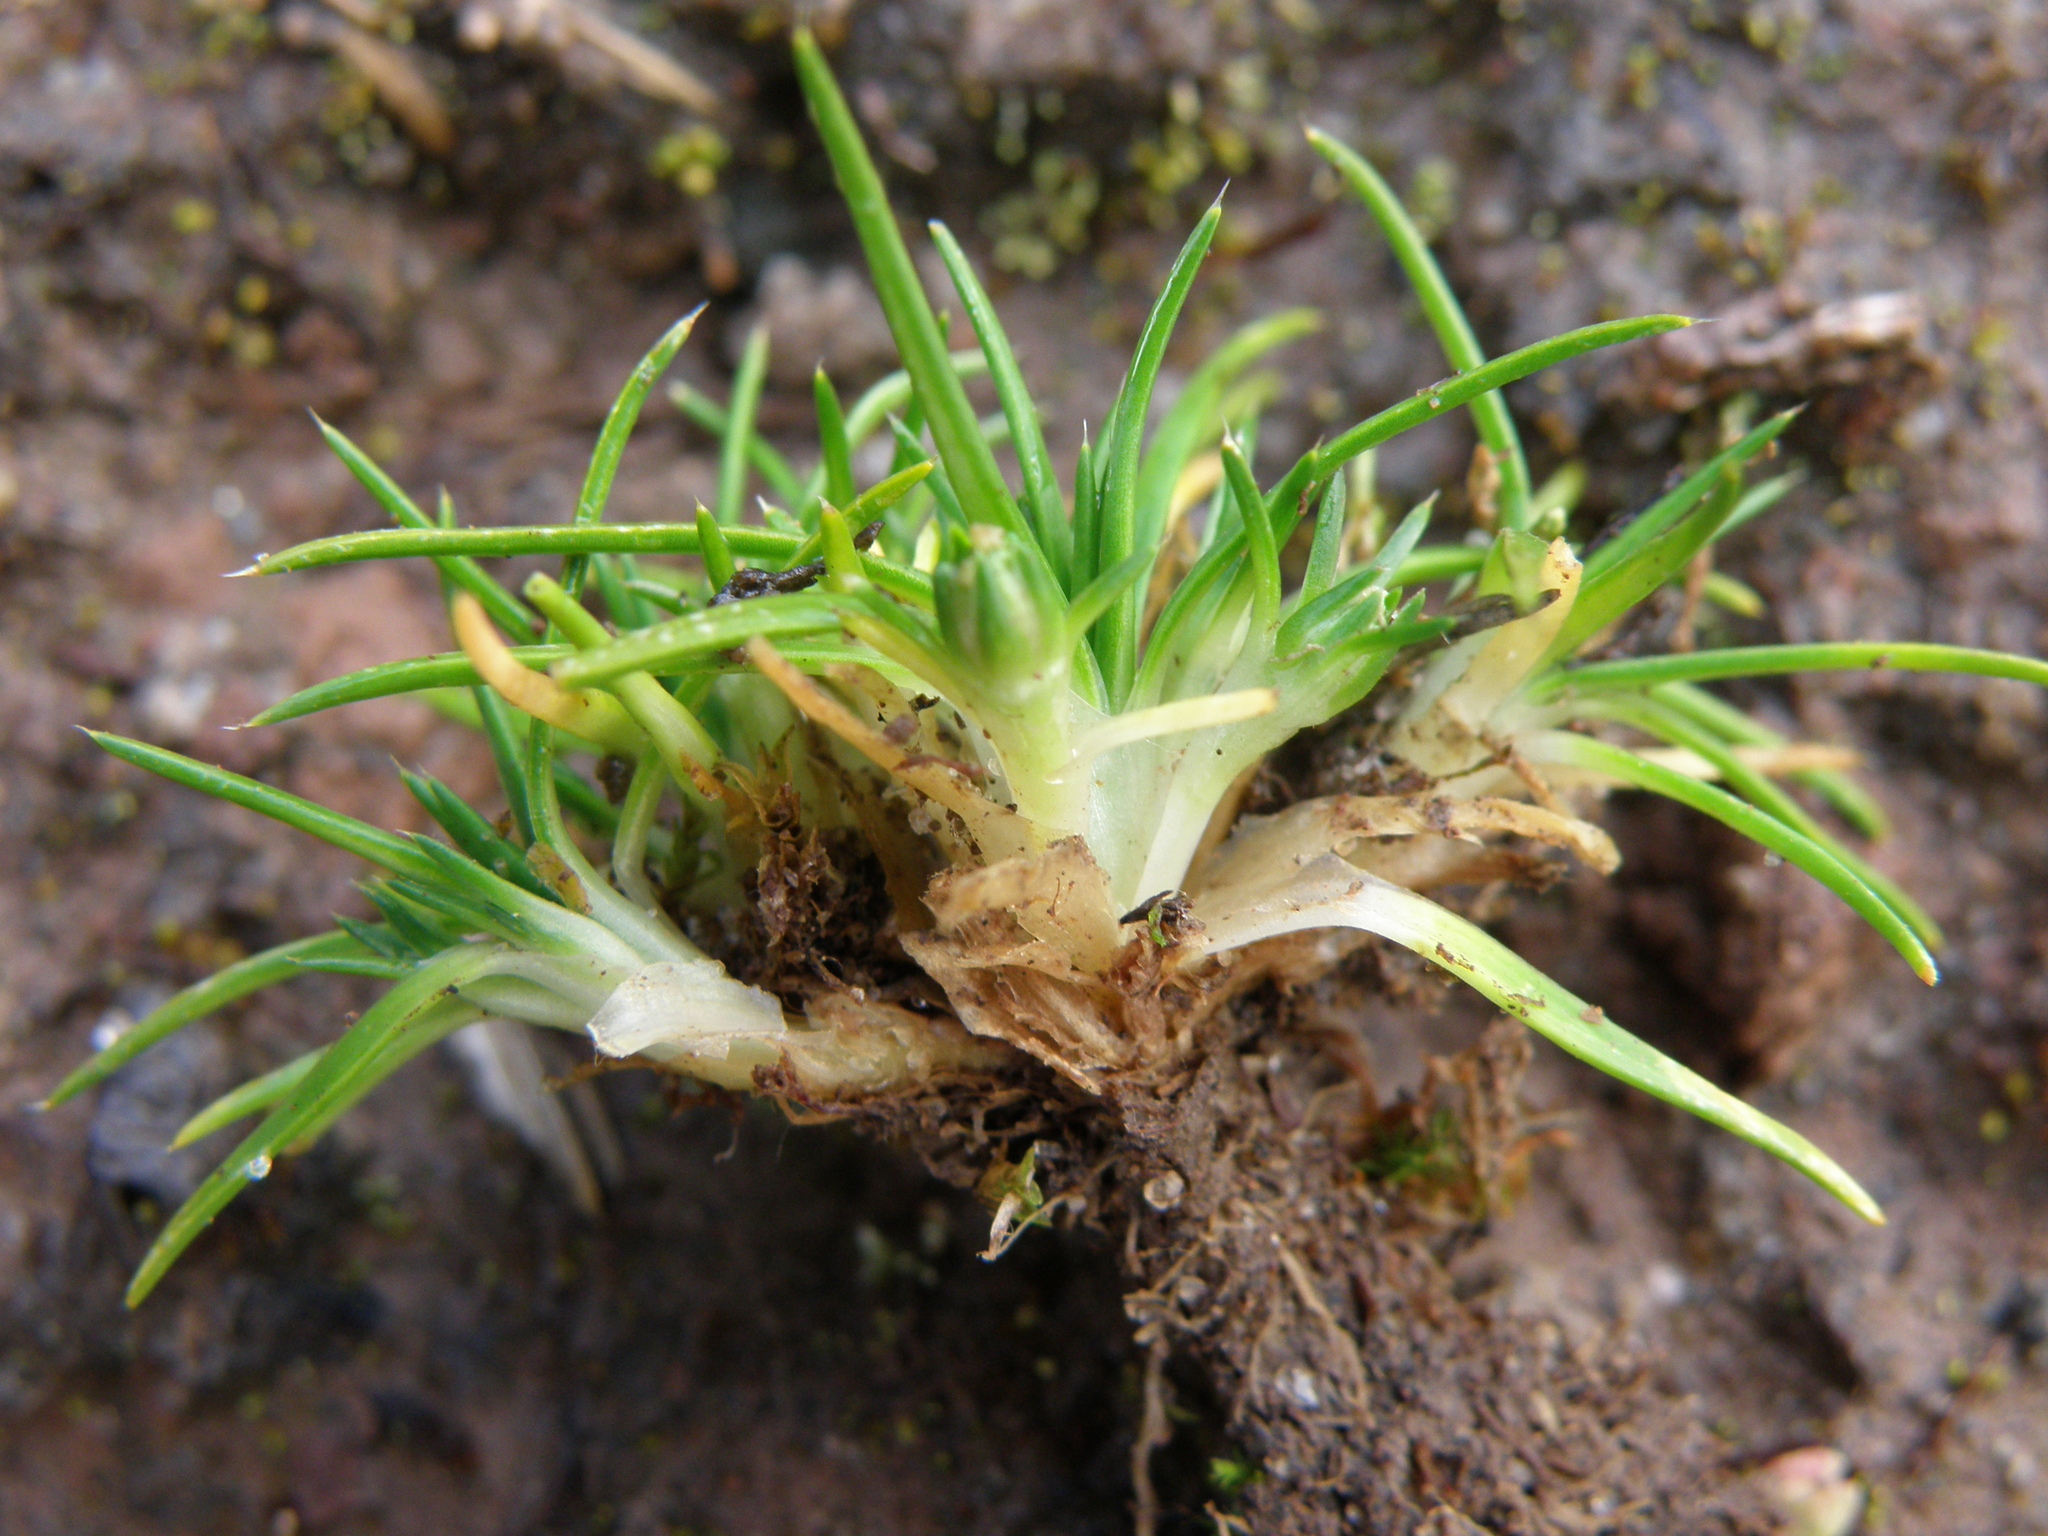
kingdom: Plantae
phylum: Tracheophyta
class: Magnoliopsida
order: Caryophyllales
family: Caryophyllaceae
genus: Colobanthus
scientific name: Colobanthus quitensis
